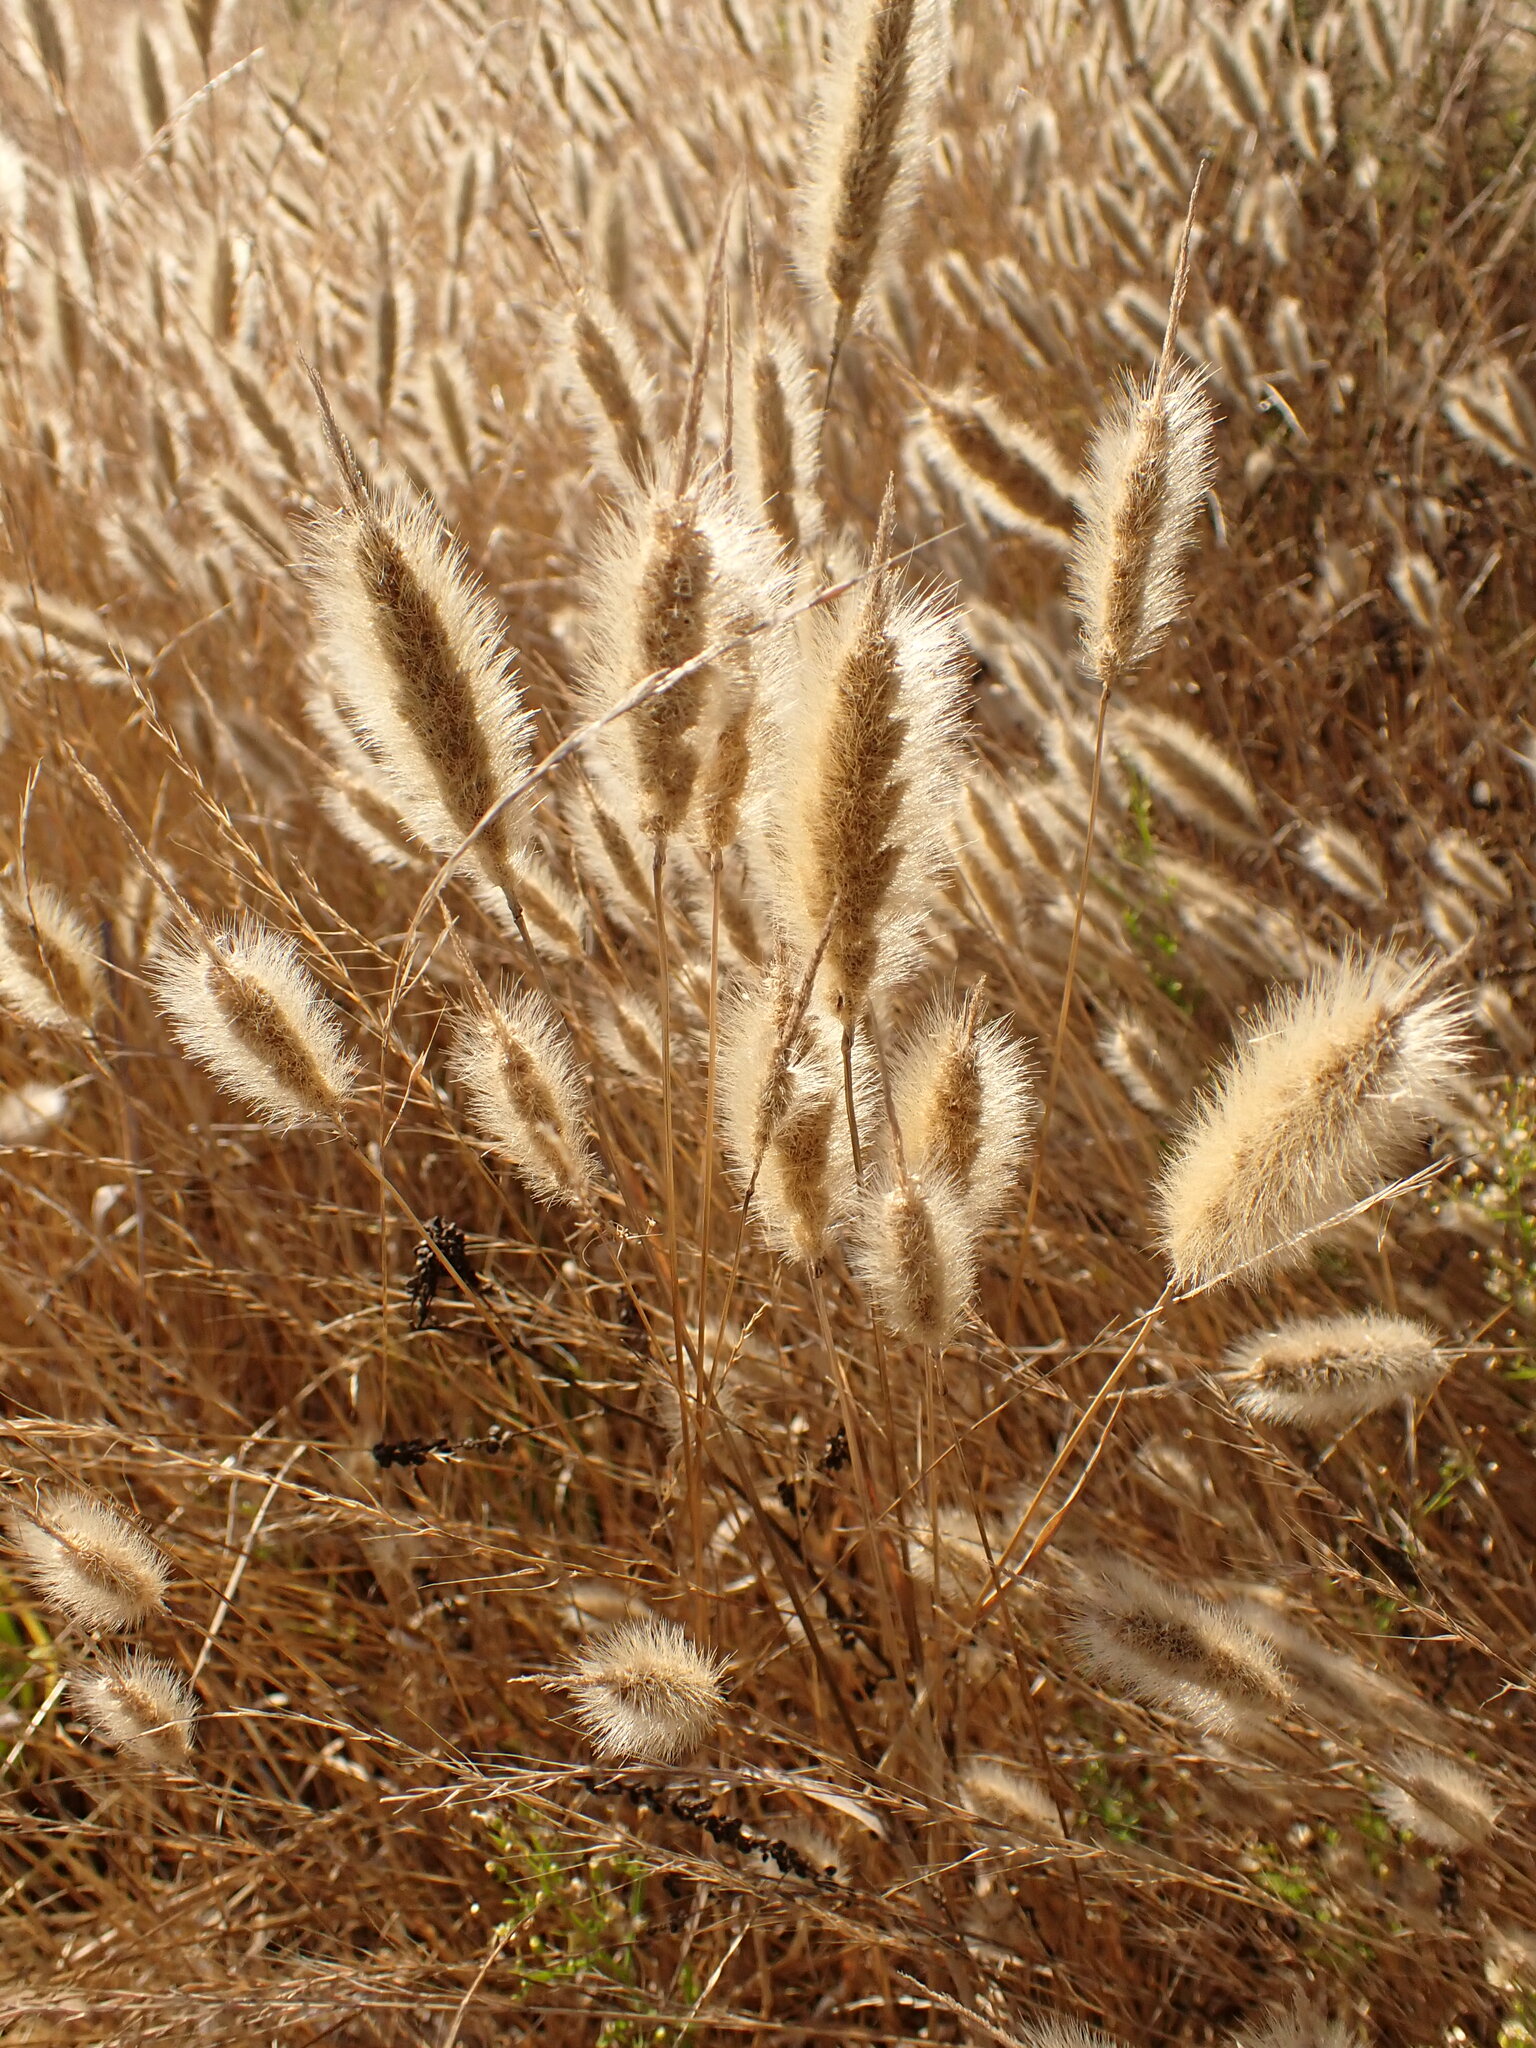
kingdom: Plantae
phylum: Tracheophyta
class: Liliopsida
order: Poales
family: Poaceae
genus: Polypogon
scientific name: Polypogon monspeliensis
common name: Annual rabbitsfoot grass
